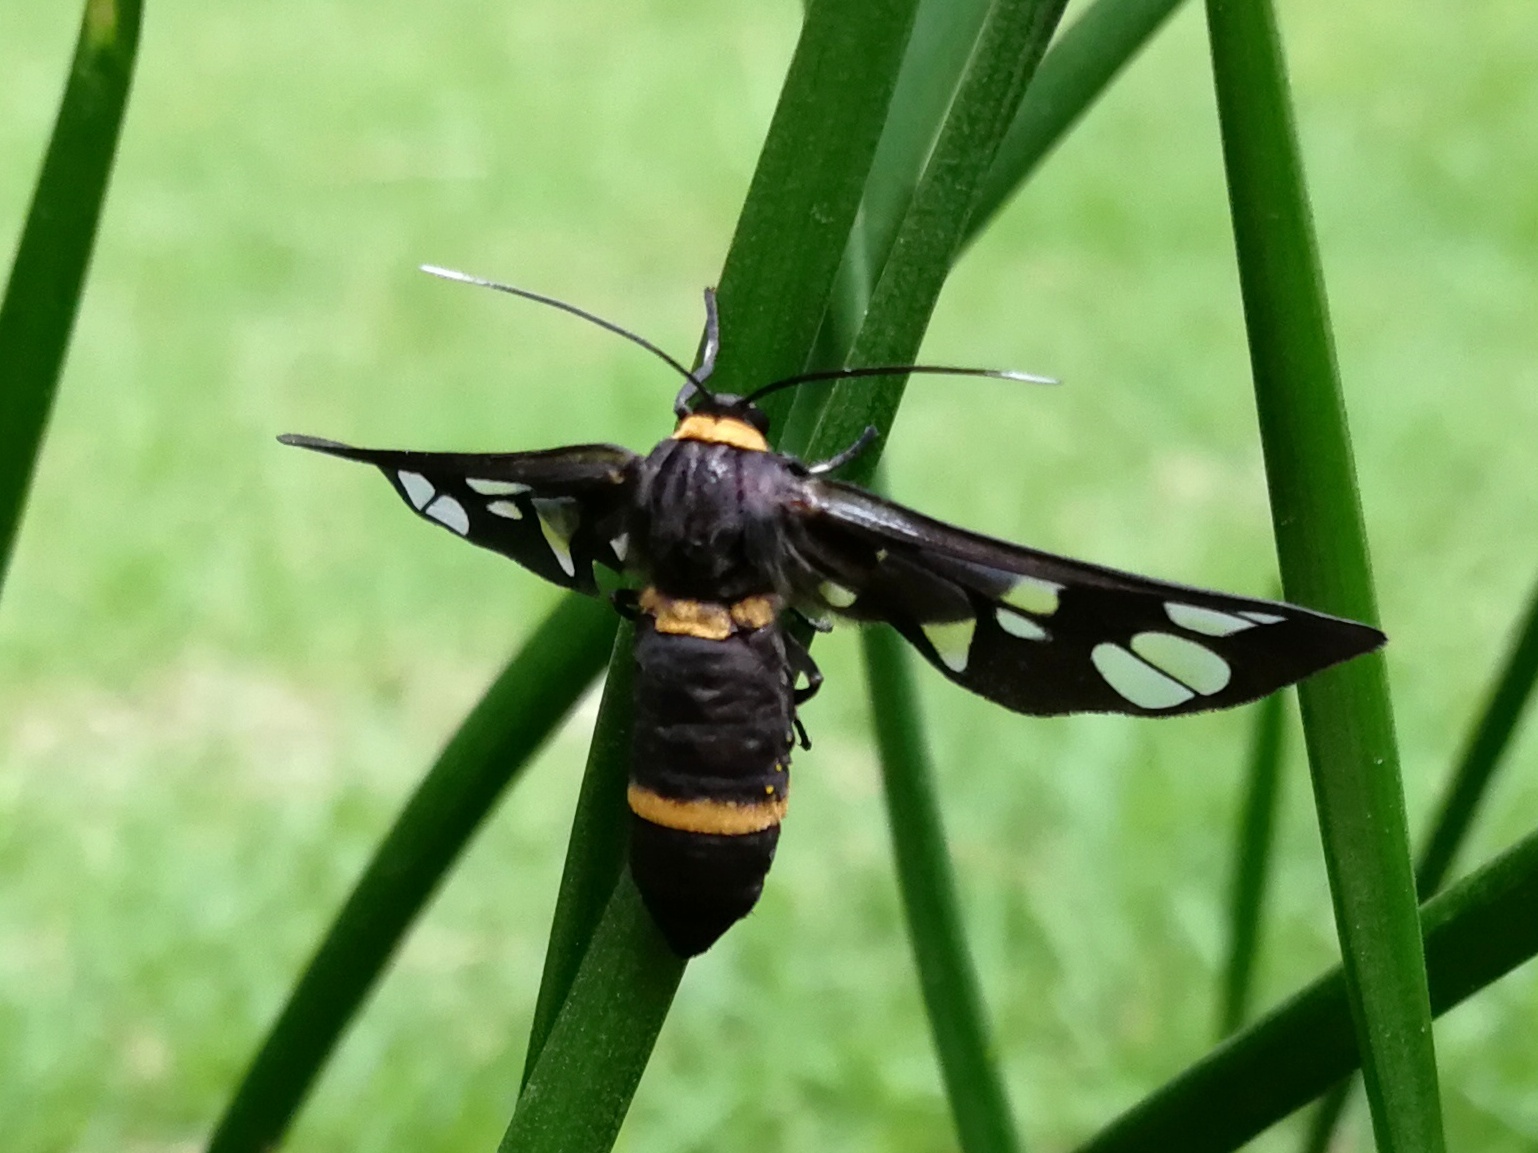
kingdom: Animalia
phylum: Arthropoda
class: Insecta
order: Lepidoptera
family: Erebidae
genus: Syntomoides
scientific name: Syntomoides imaon
